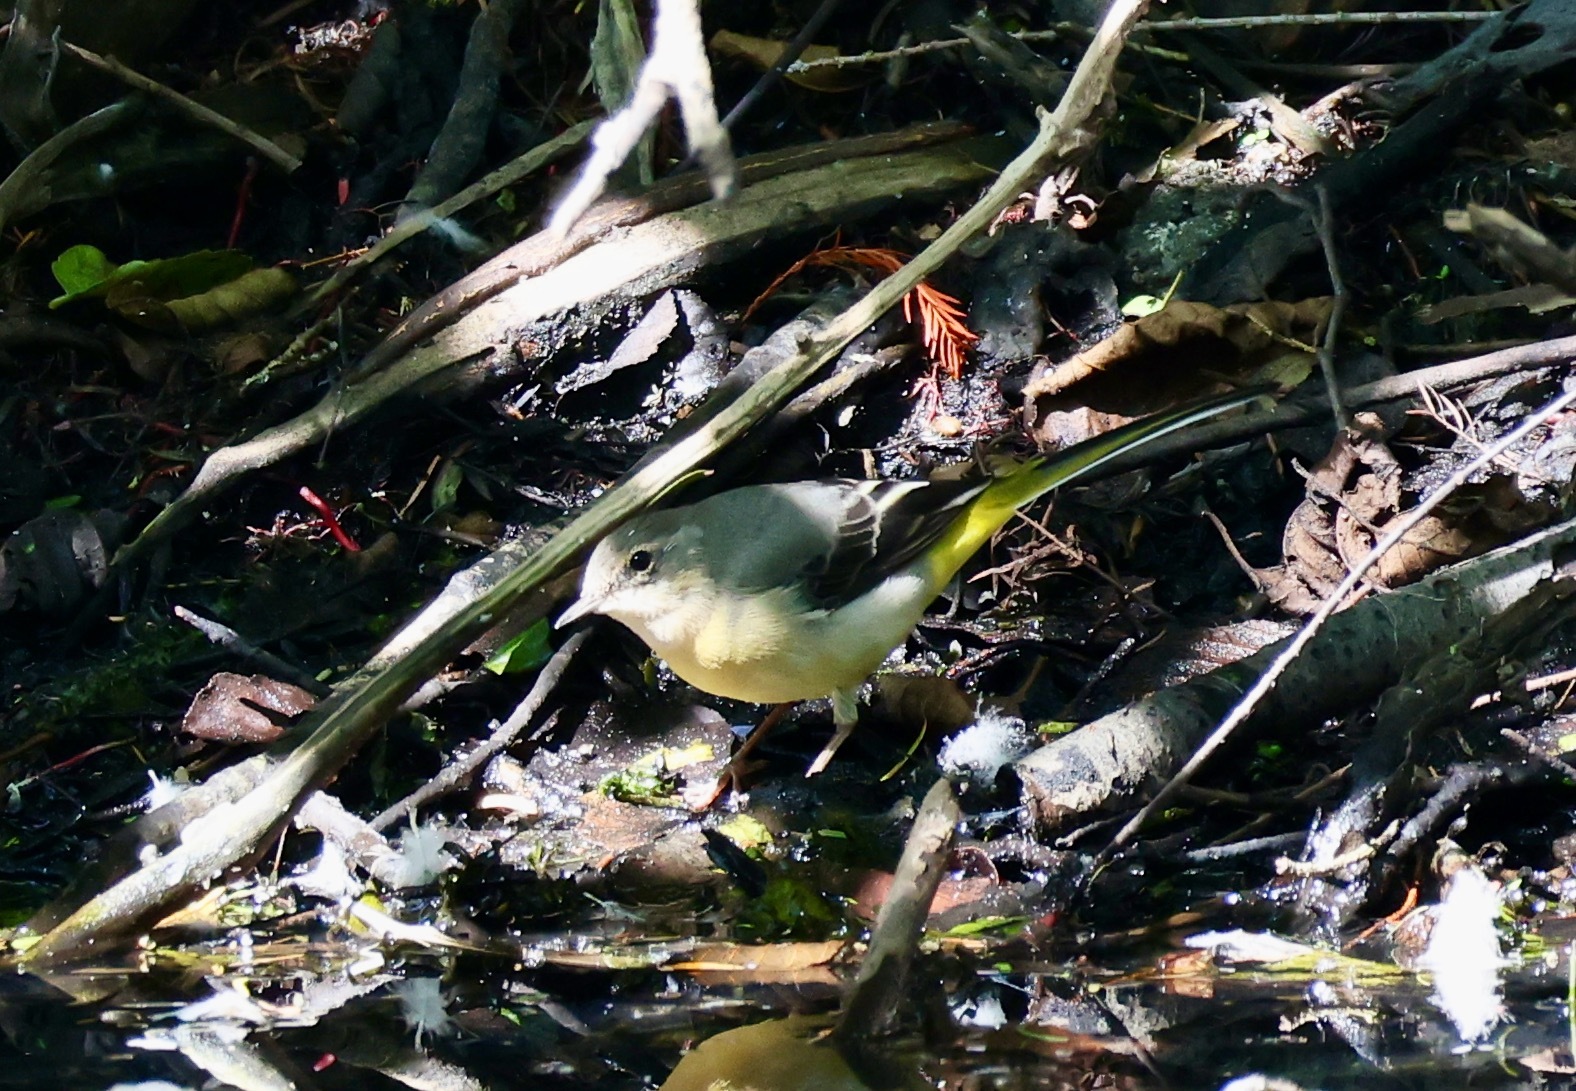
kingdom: Animalia
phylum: Chordata
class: Aves
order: Passeriformes
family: Motacillidae
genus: Motacilla
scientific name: Motacilla cinerea
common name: Grey wagtail
